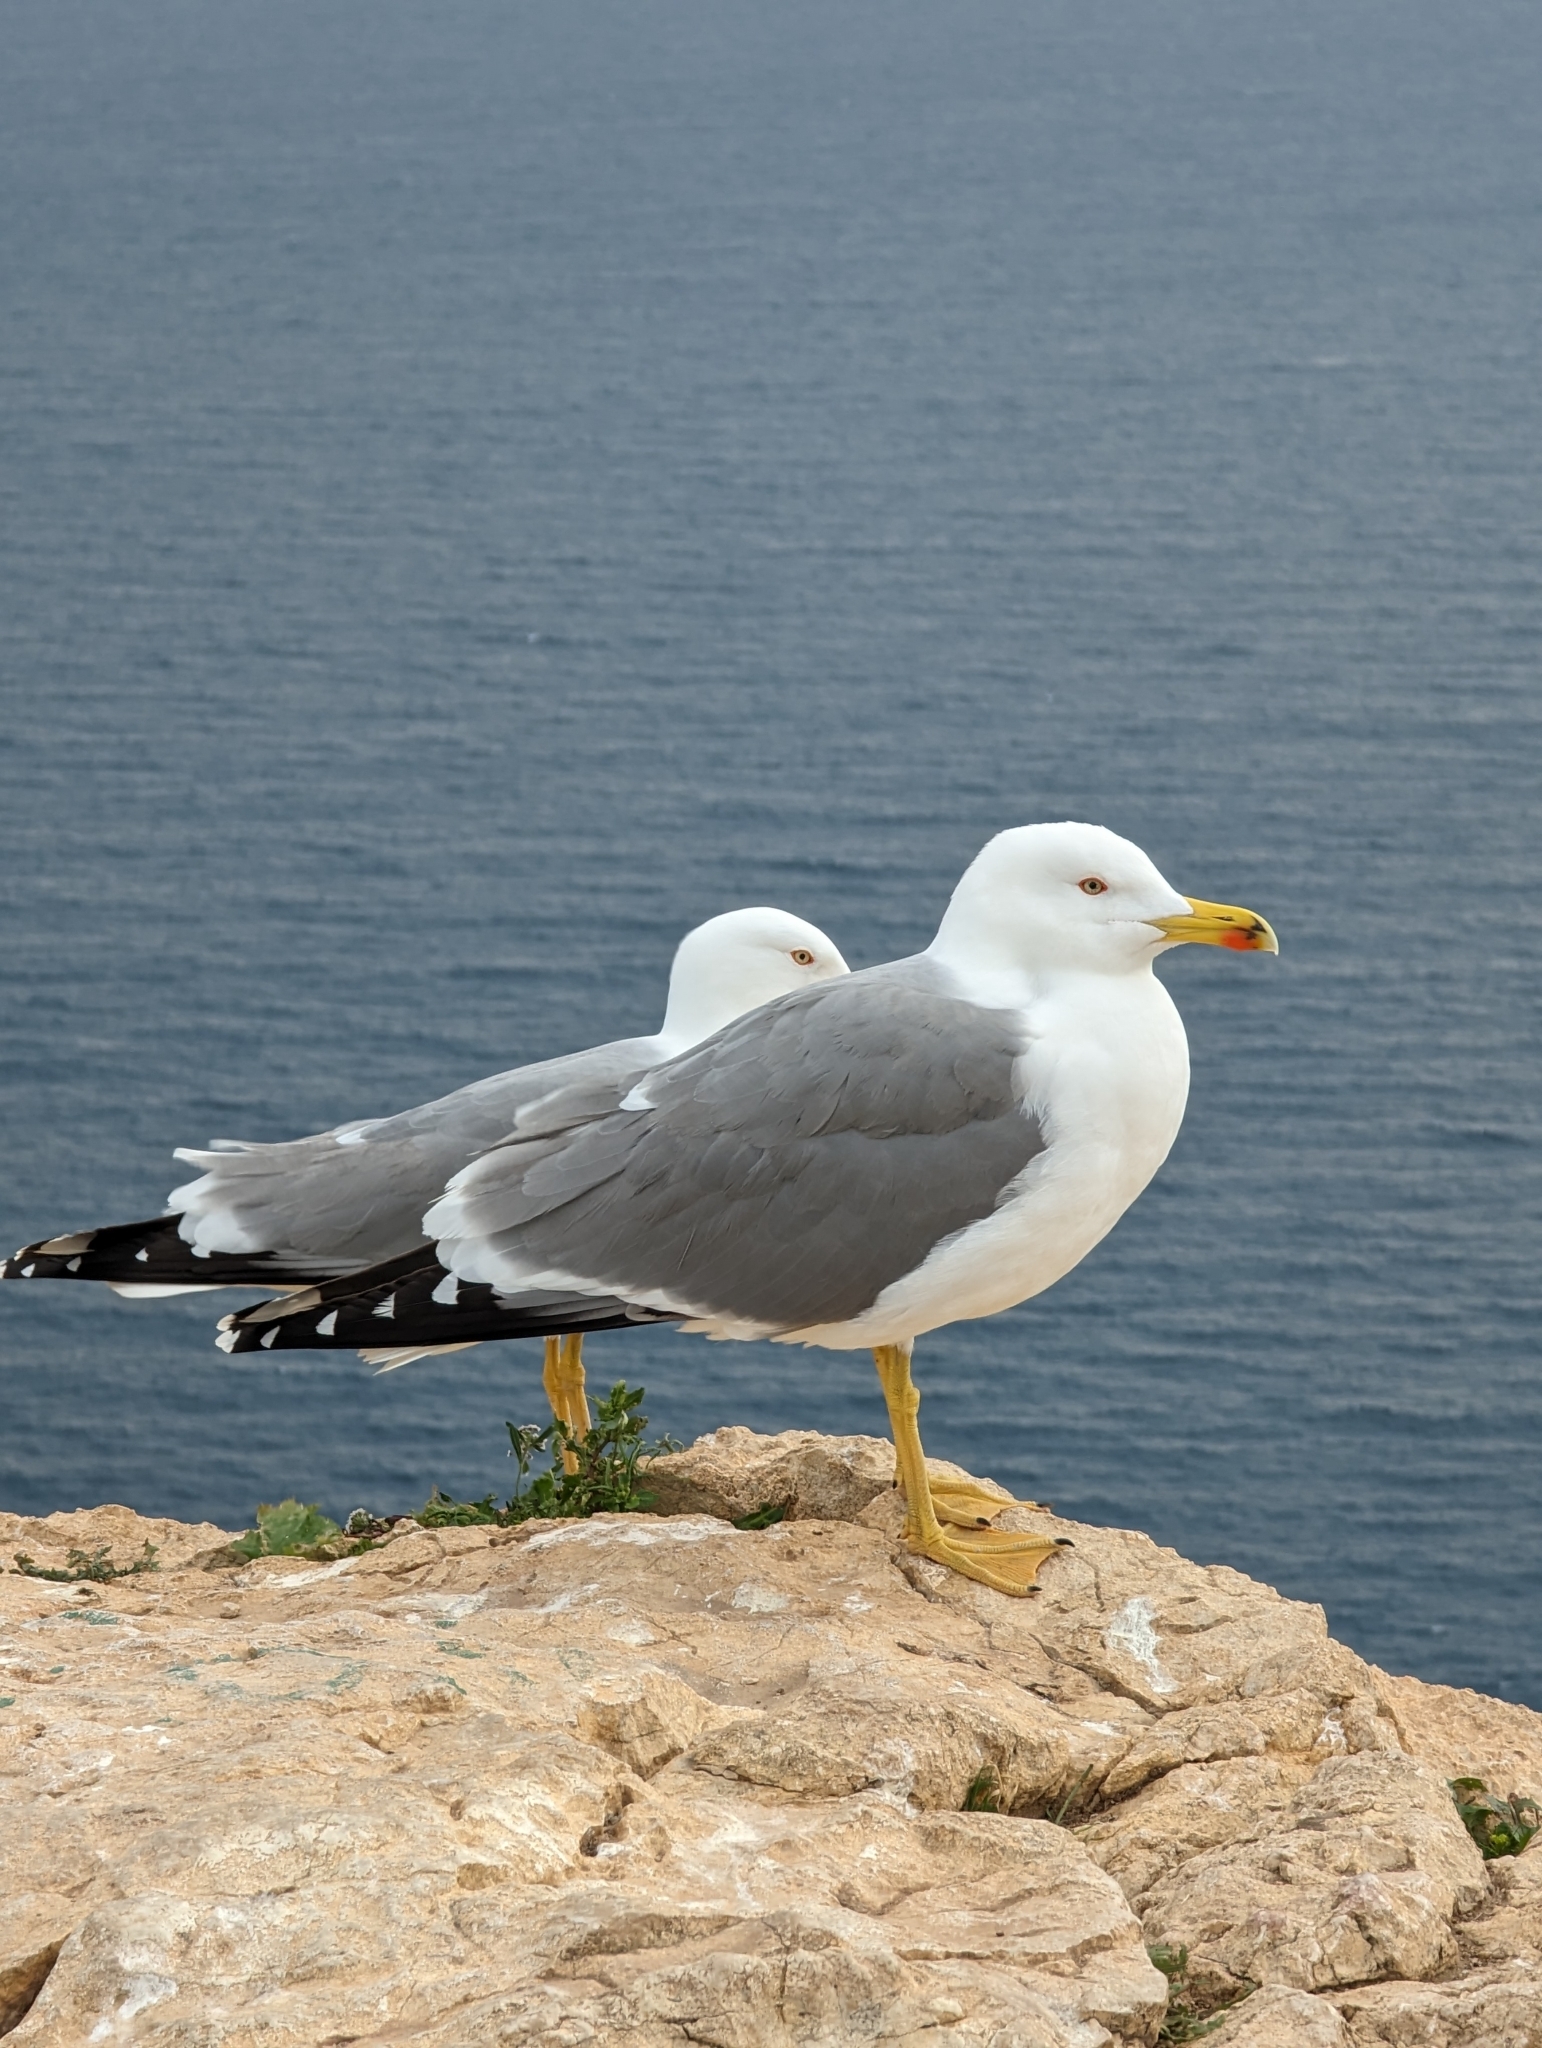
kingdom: Animalia
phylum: Chordata
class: Aves
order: Charadriiformes
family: Laridae
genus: Larus
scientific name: Larus michahellis
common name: Yellow-legged gull
